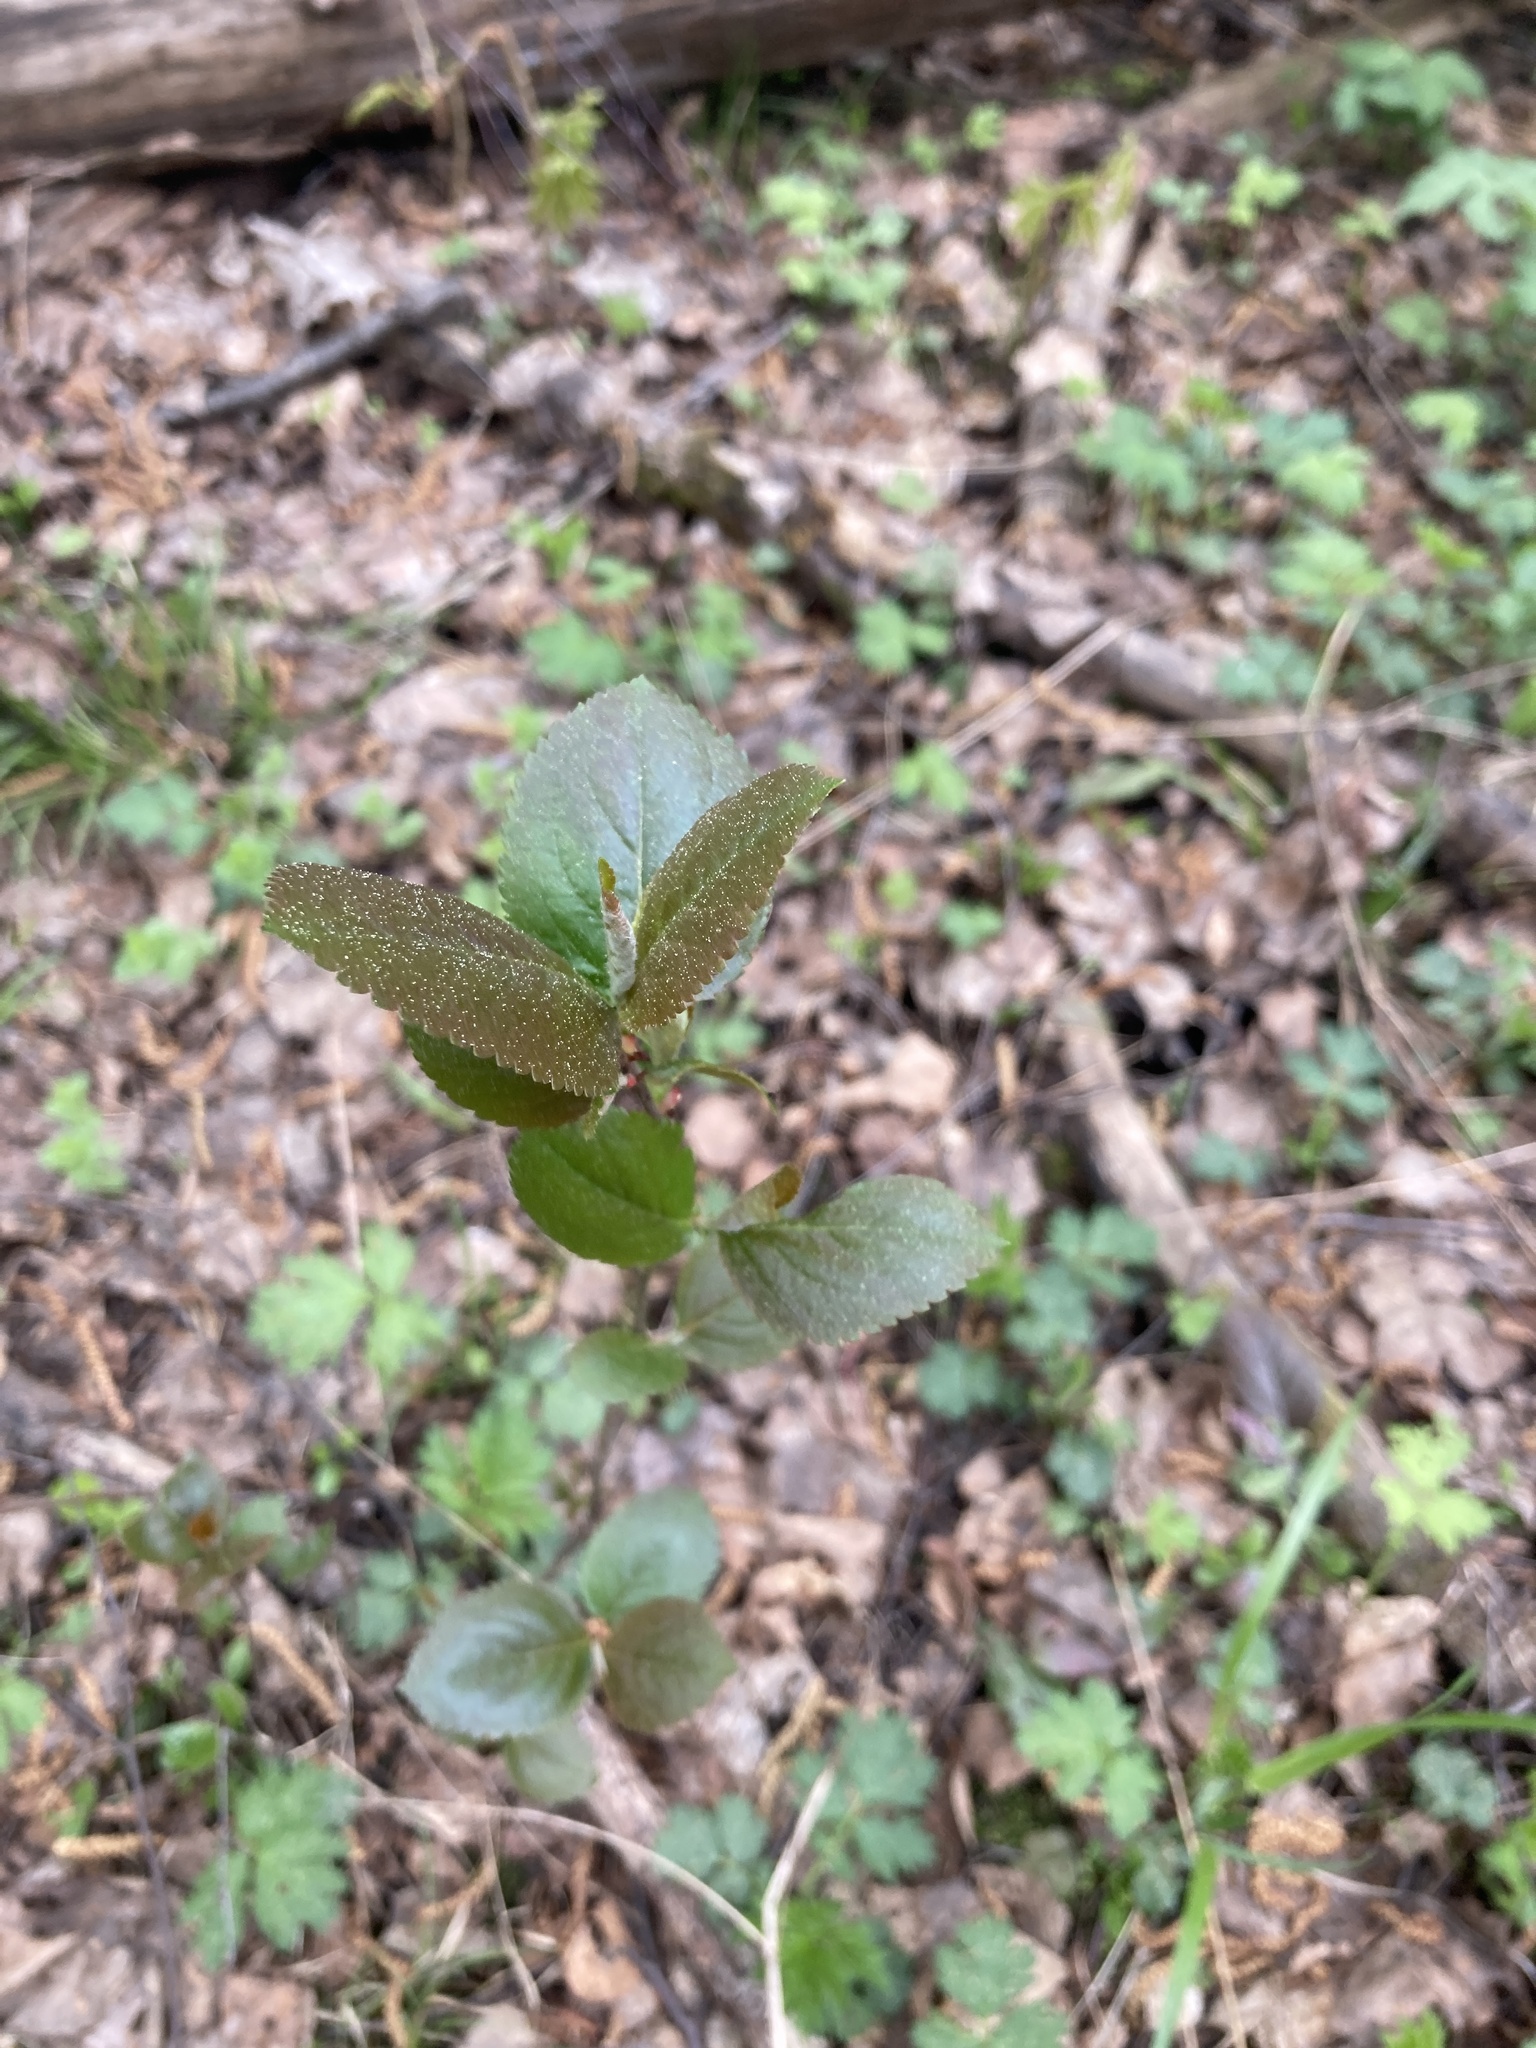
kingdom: Plantae
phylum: Tracheophyta
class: Magnoliopsida
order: Rosales
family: Rosaceae
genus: Sorbaronia
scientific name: Sorbaronia arsenii
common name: Arsène's mountain-ash
